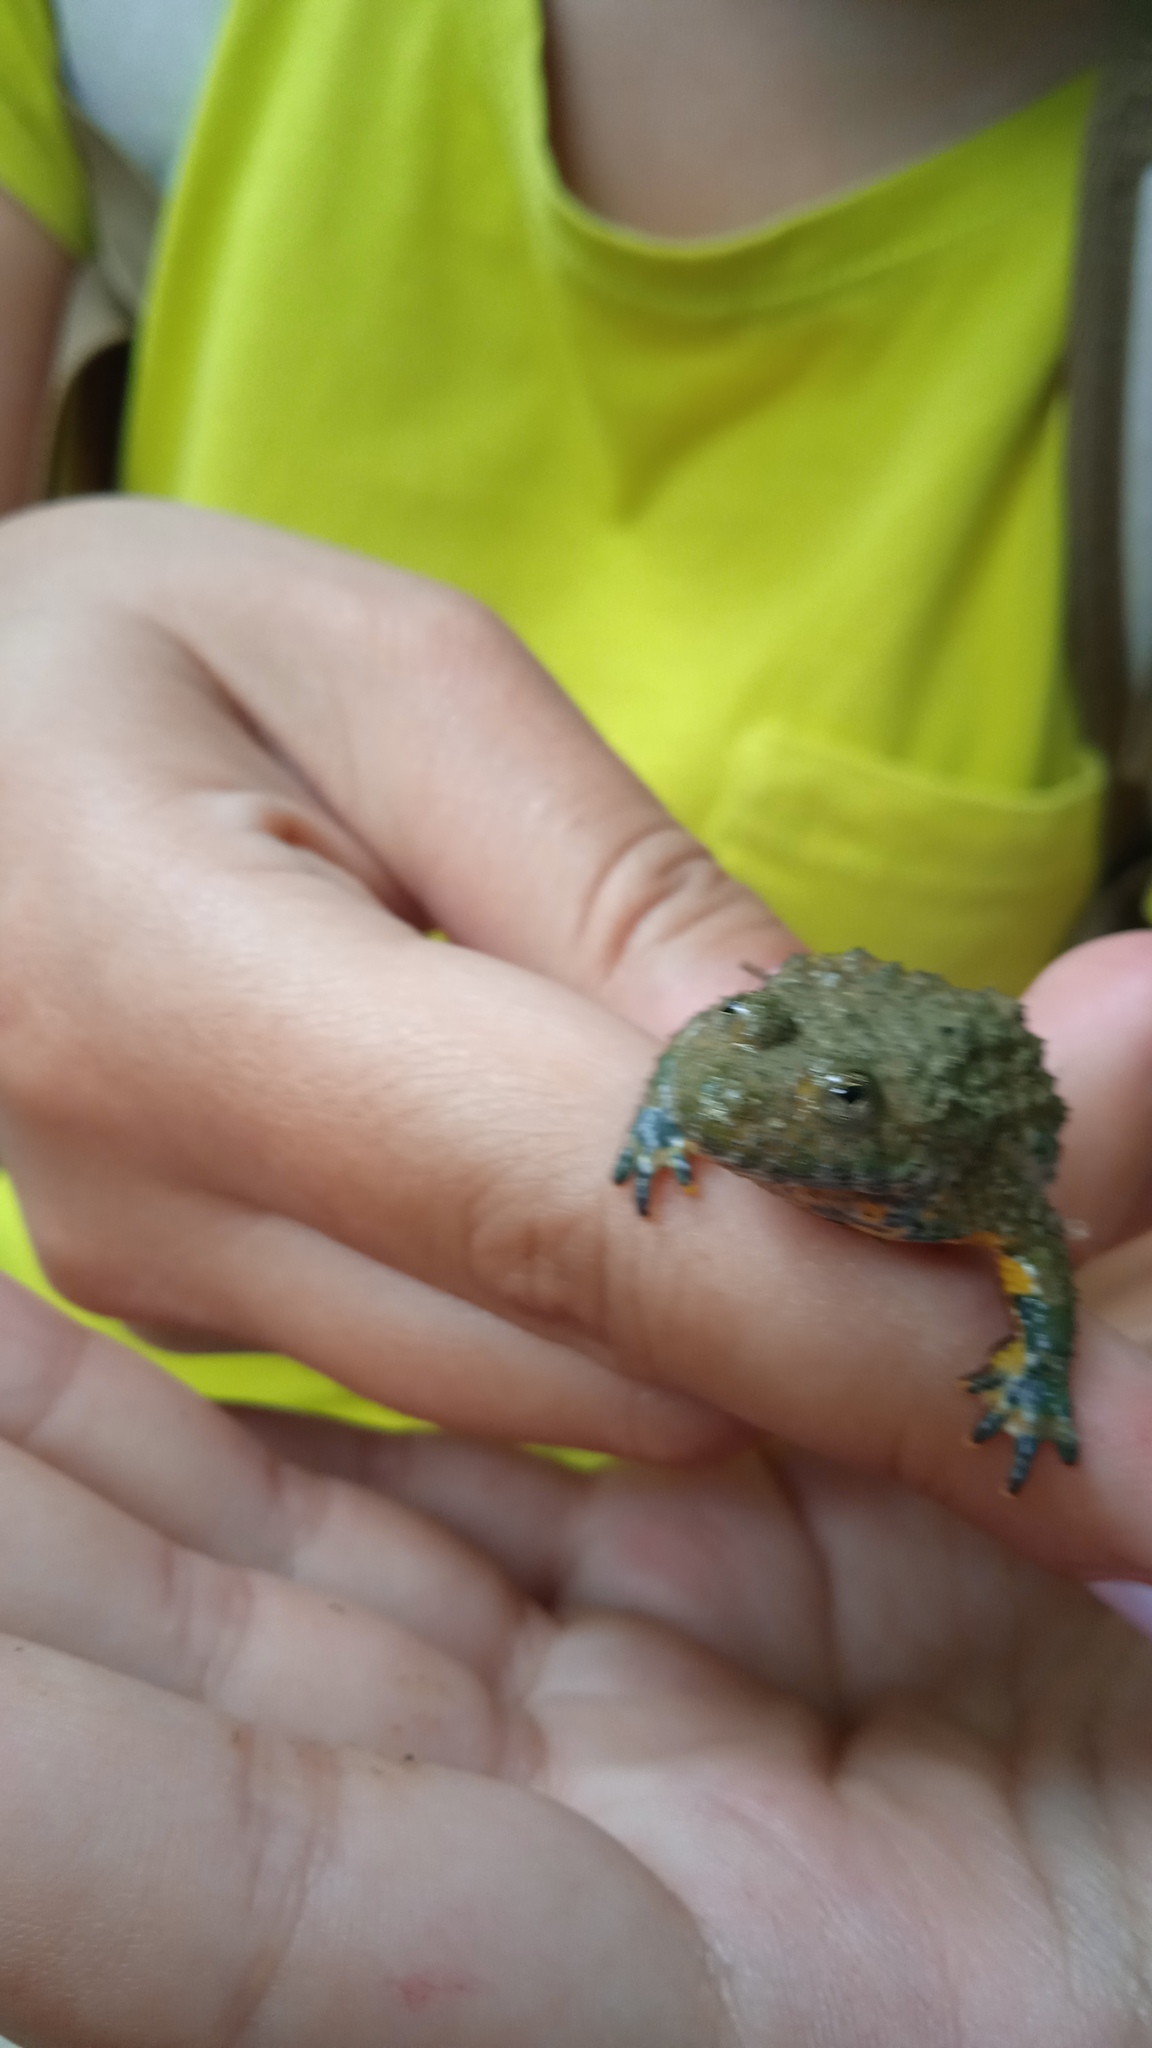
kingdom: Animalia
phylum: Chordata
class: Amphibia
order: Anura
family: Bombinatoridae
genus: Bombina
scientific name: Bombina variegata
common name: Yellow-bellied toad
